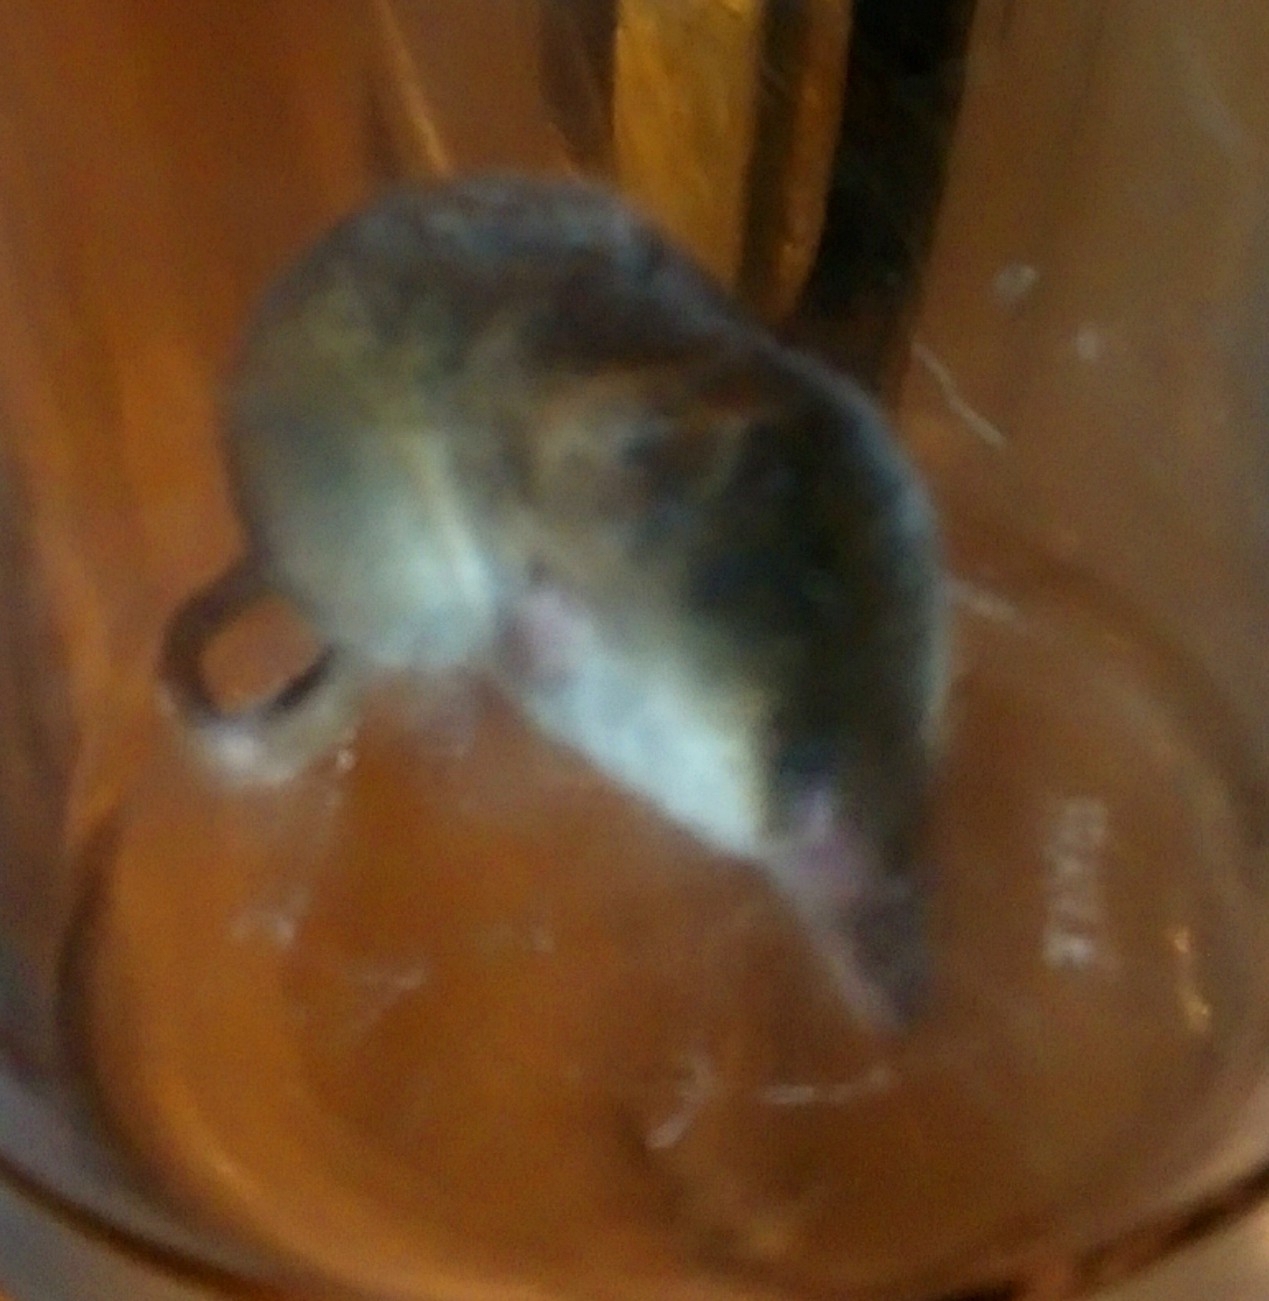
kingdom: Animalia
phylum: Chordata
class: Mammalia
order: Soricomorpha
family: Soricidae
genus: Sorex
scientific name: Sorex araneus
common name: Common shrew
